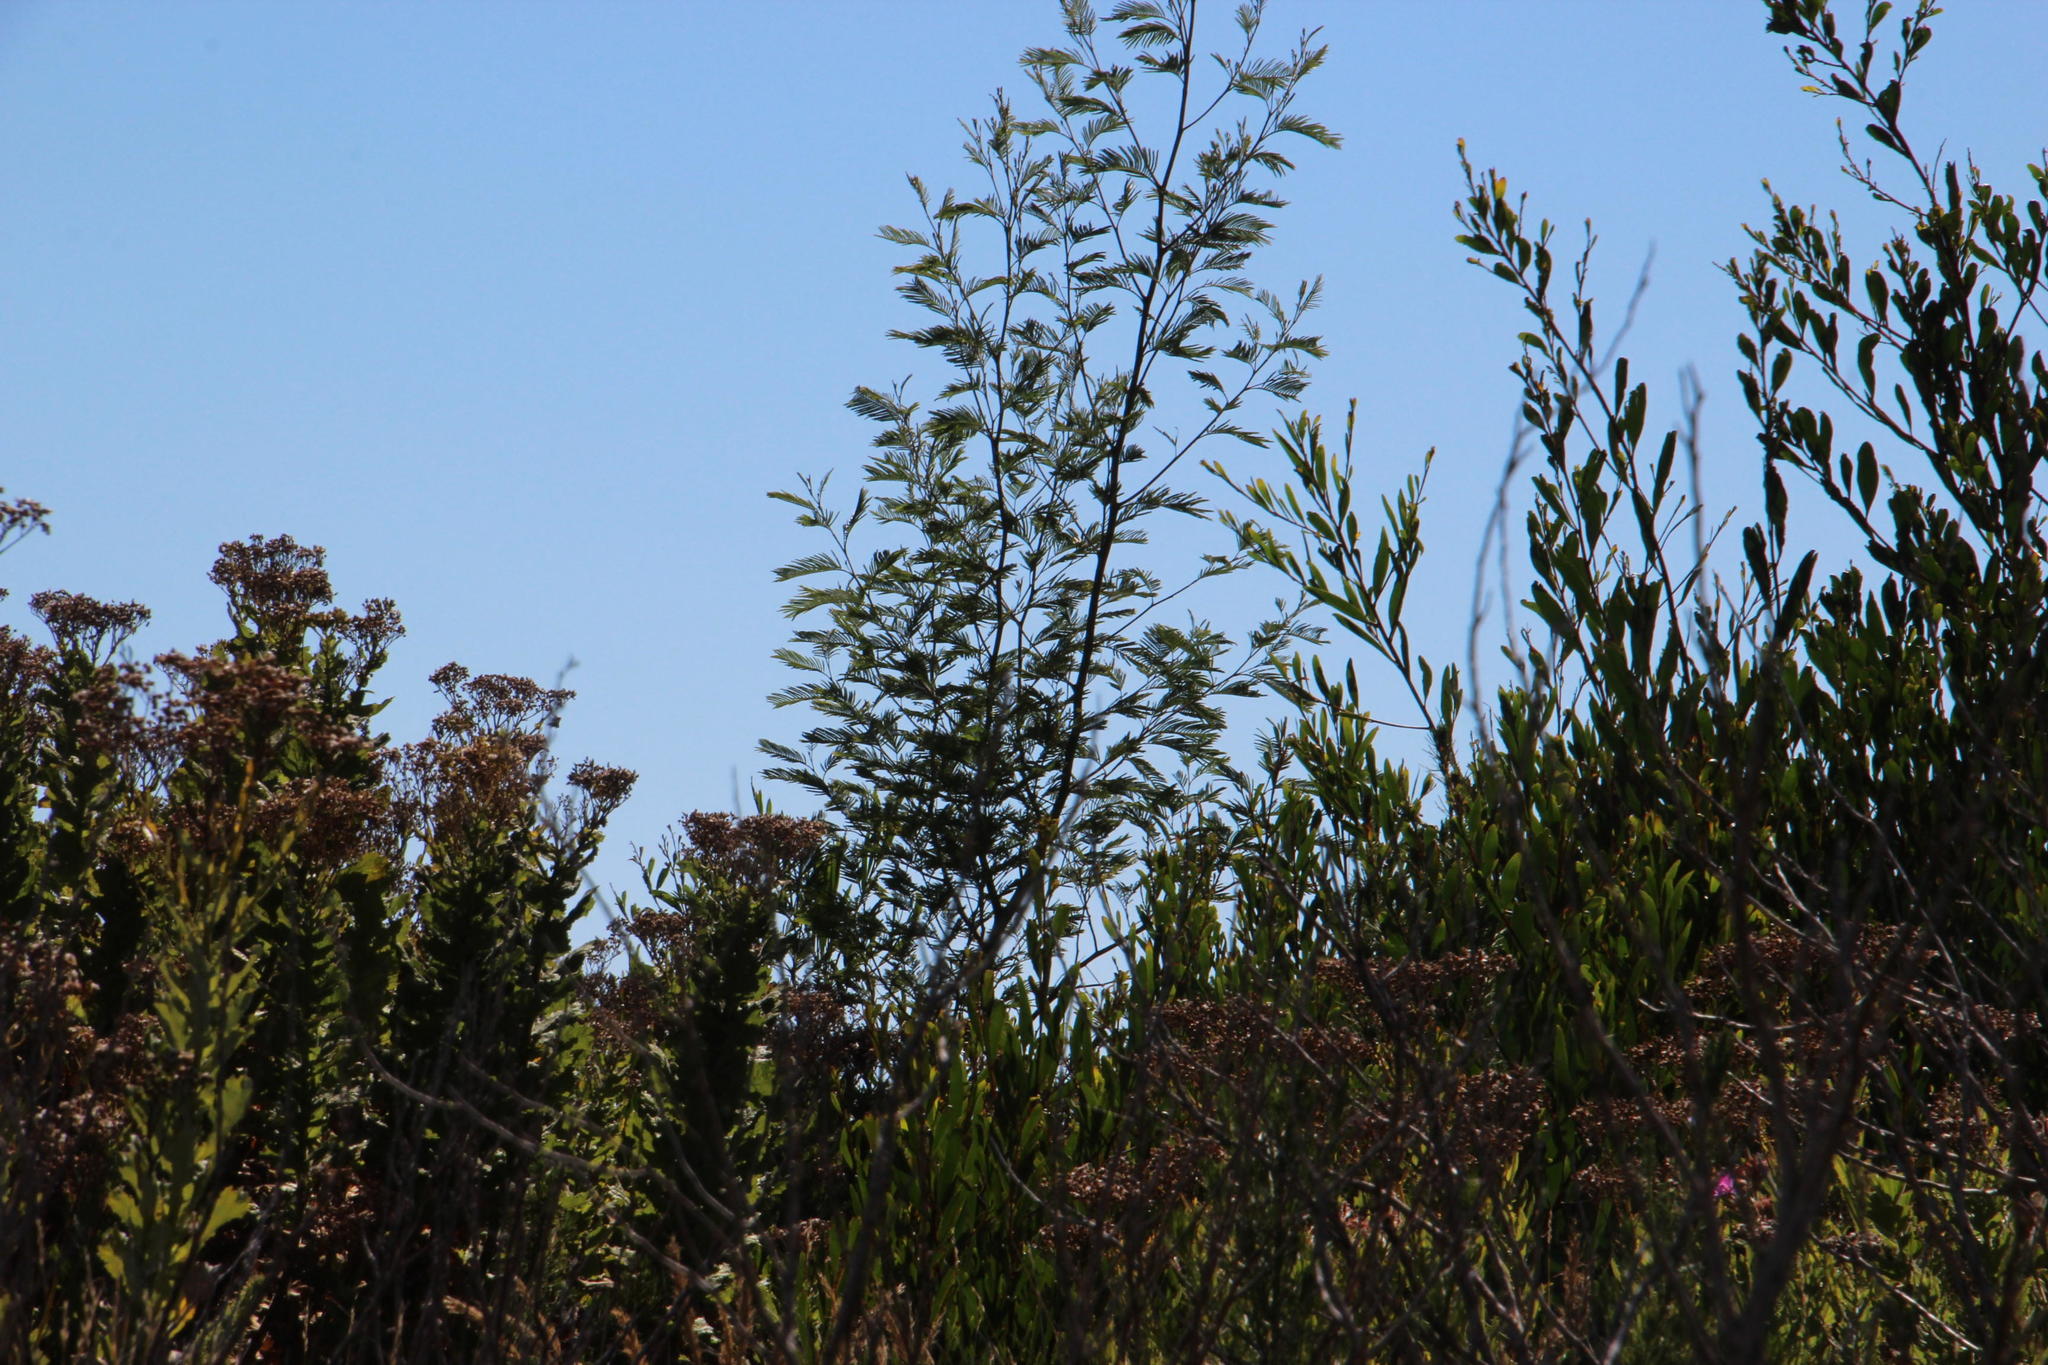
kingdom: Plantae
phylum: Tracheophyta
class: Magnoliopsida
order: Fabales
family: Fabaceae
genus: Acacia
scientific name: Acacia mearnsii
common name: Black wattle
